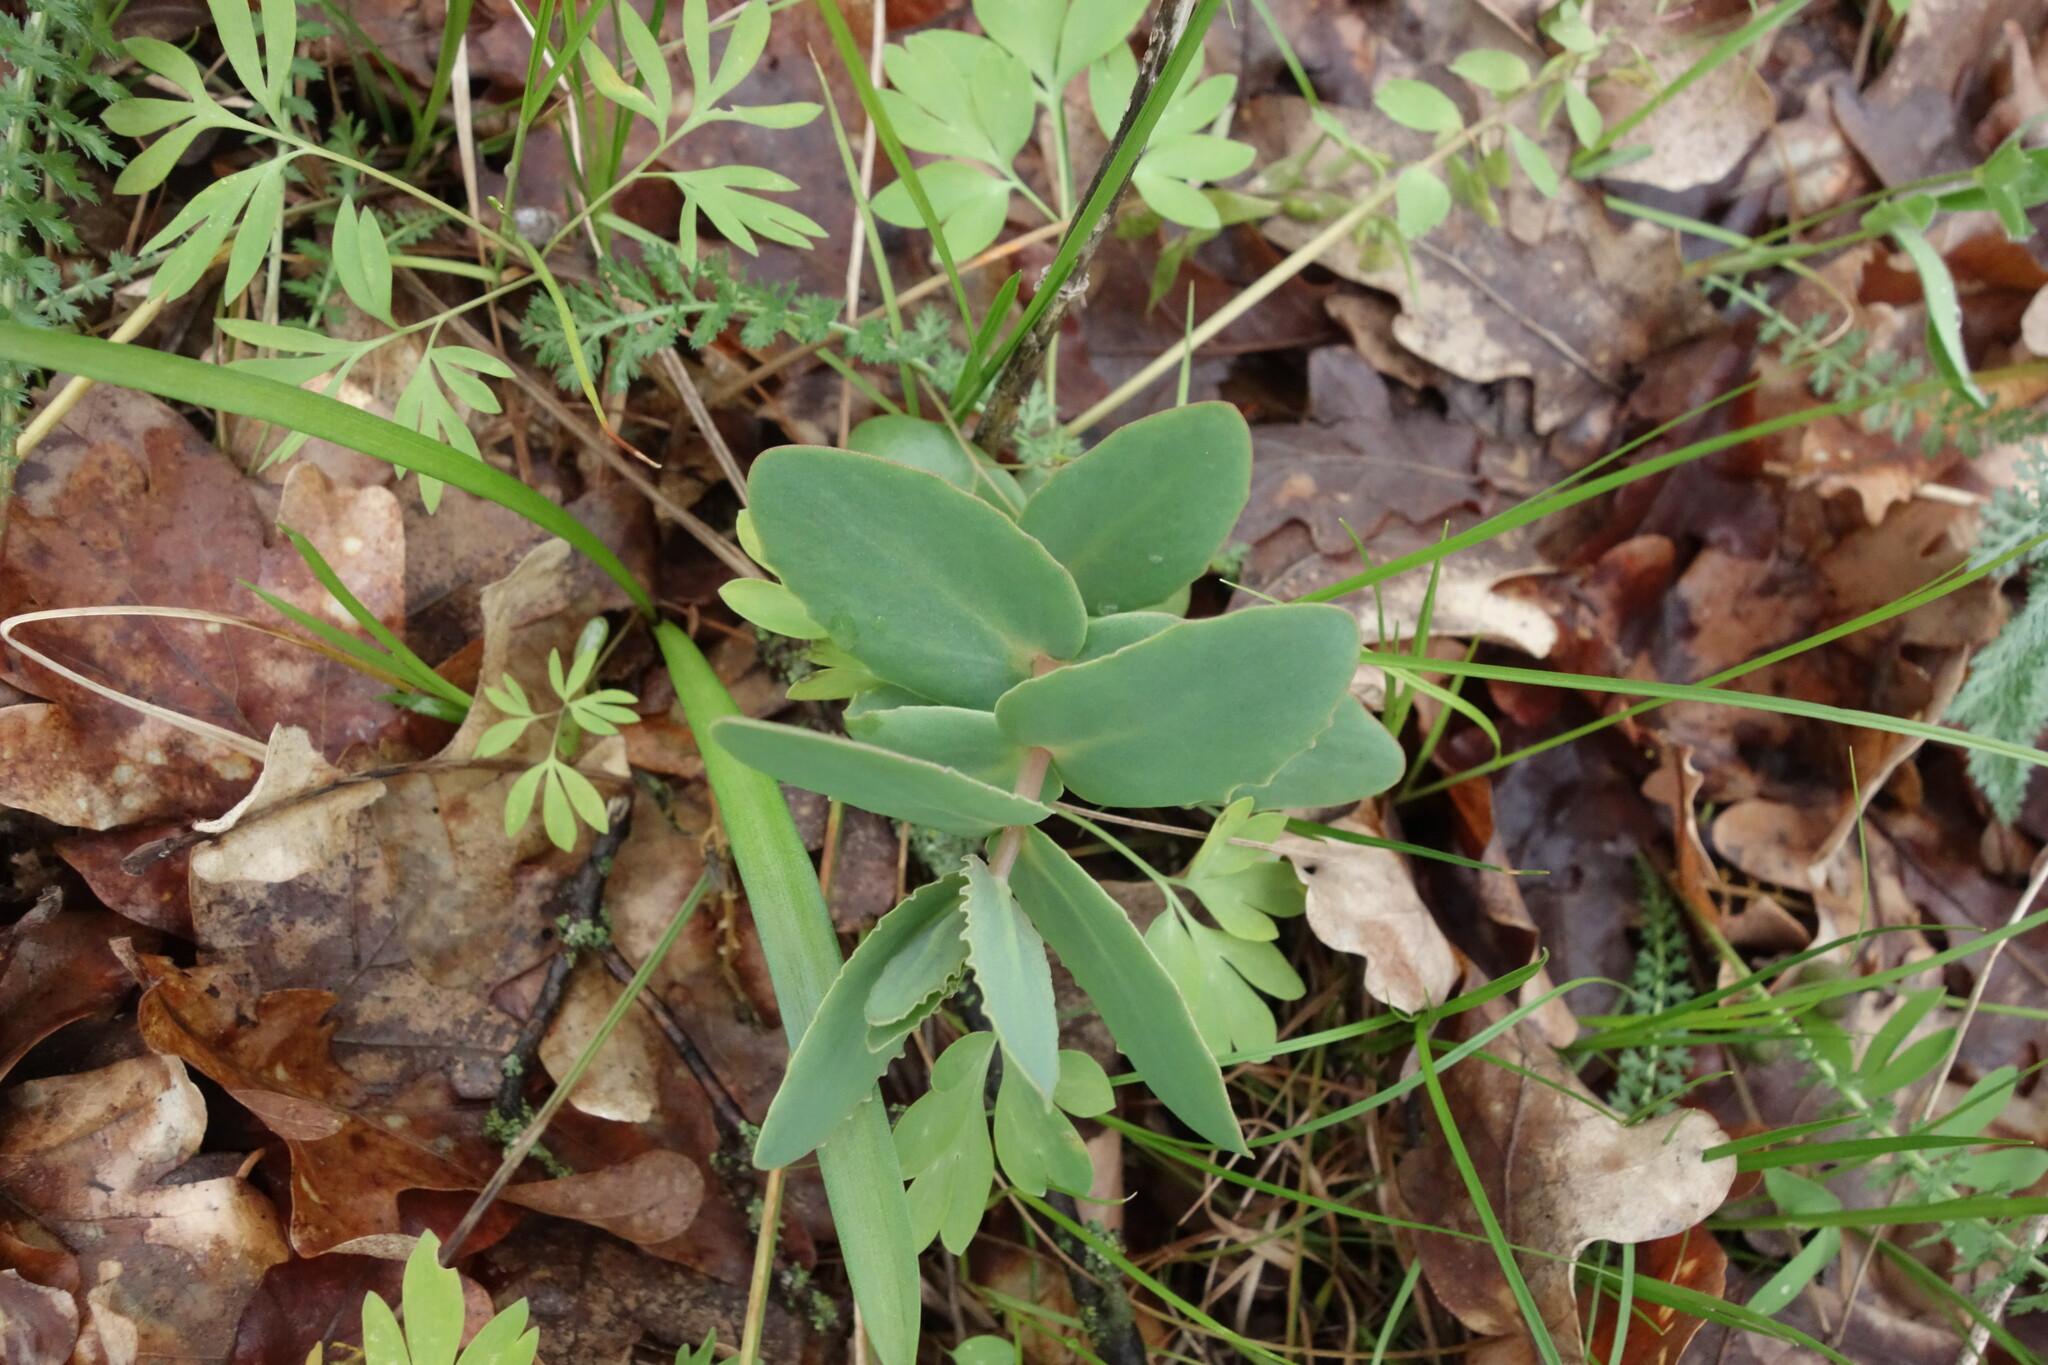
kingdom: Plantae
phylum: Tracheophyta
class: Magnoliopsida
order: Saxifragales
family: Crassulaceae
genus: Hylotelephium
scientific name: Hylotelephium maximum
